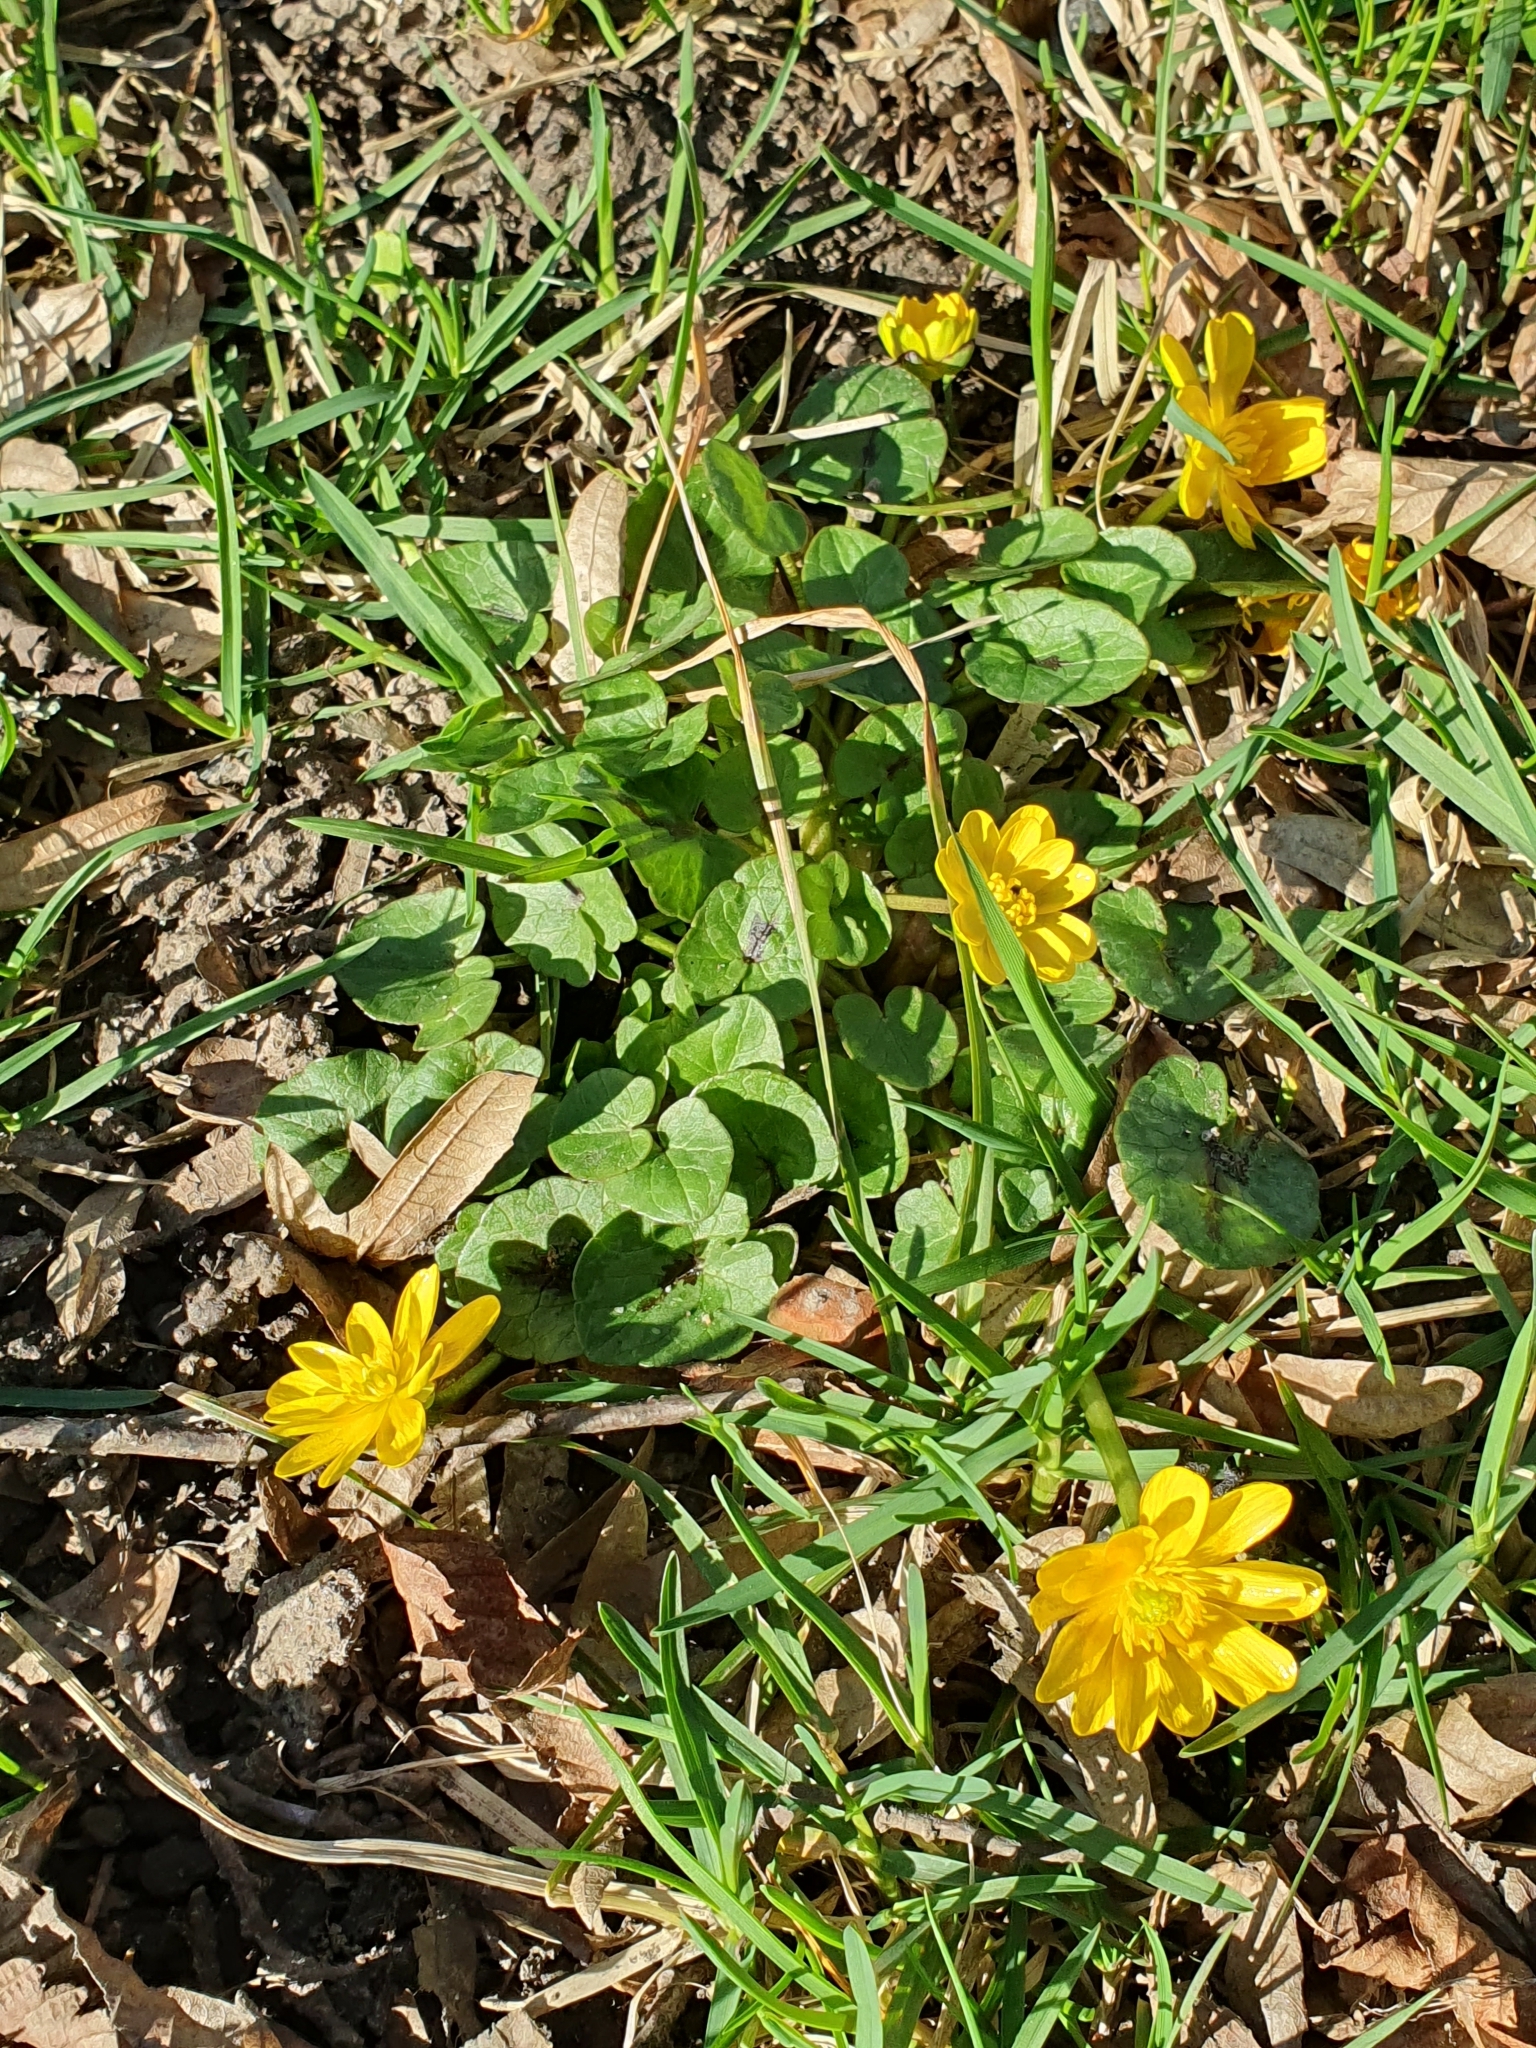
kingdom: Plantae
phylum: Tracheophyta
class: Magnoliopsida
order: Ranunculales
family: Ranunculaceae
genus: Ficaria
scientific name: Ficaria verna
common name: Lesser celandine
